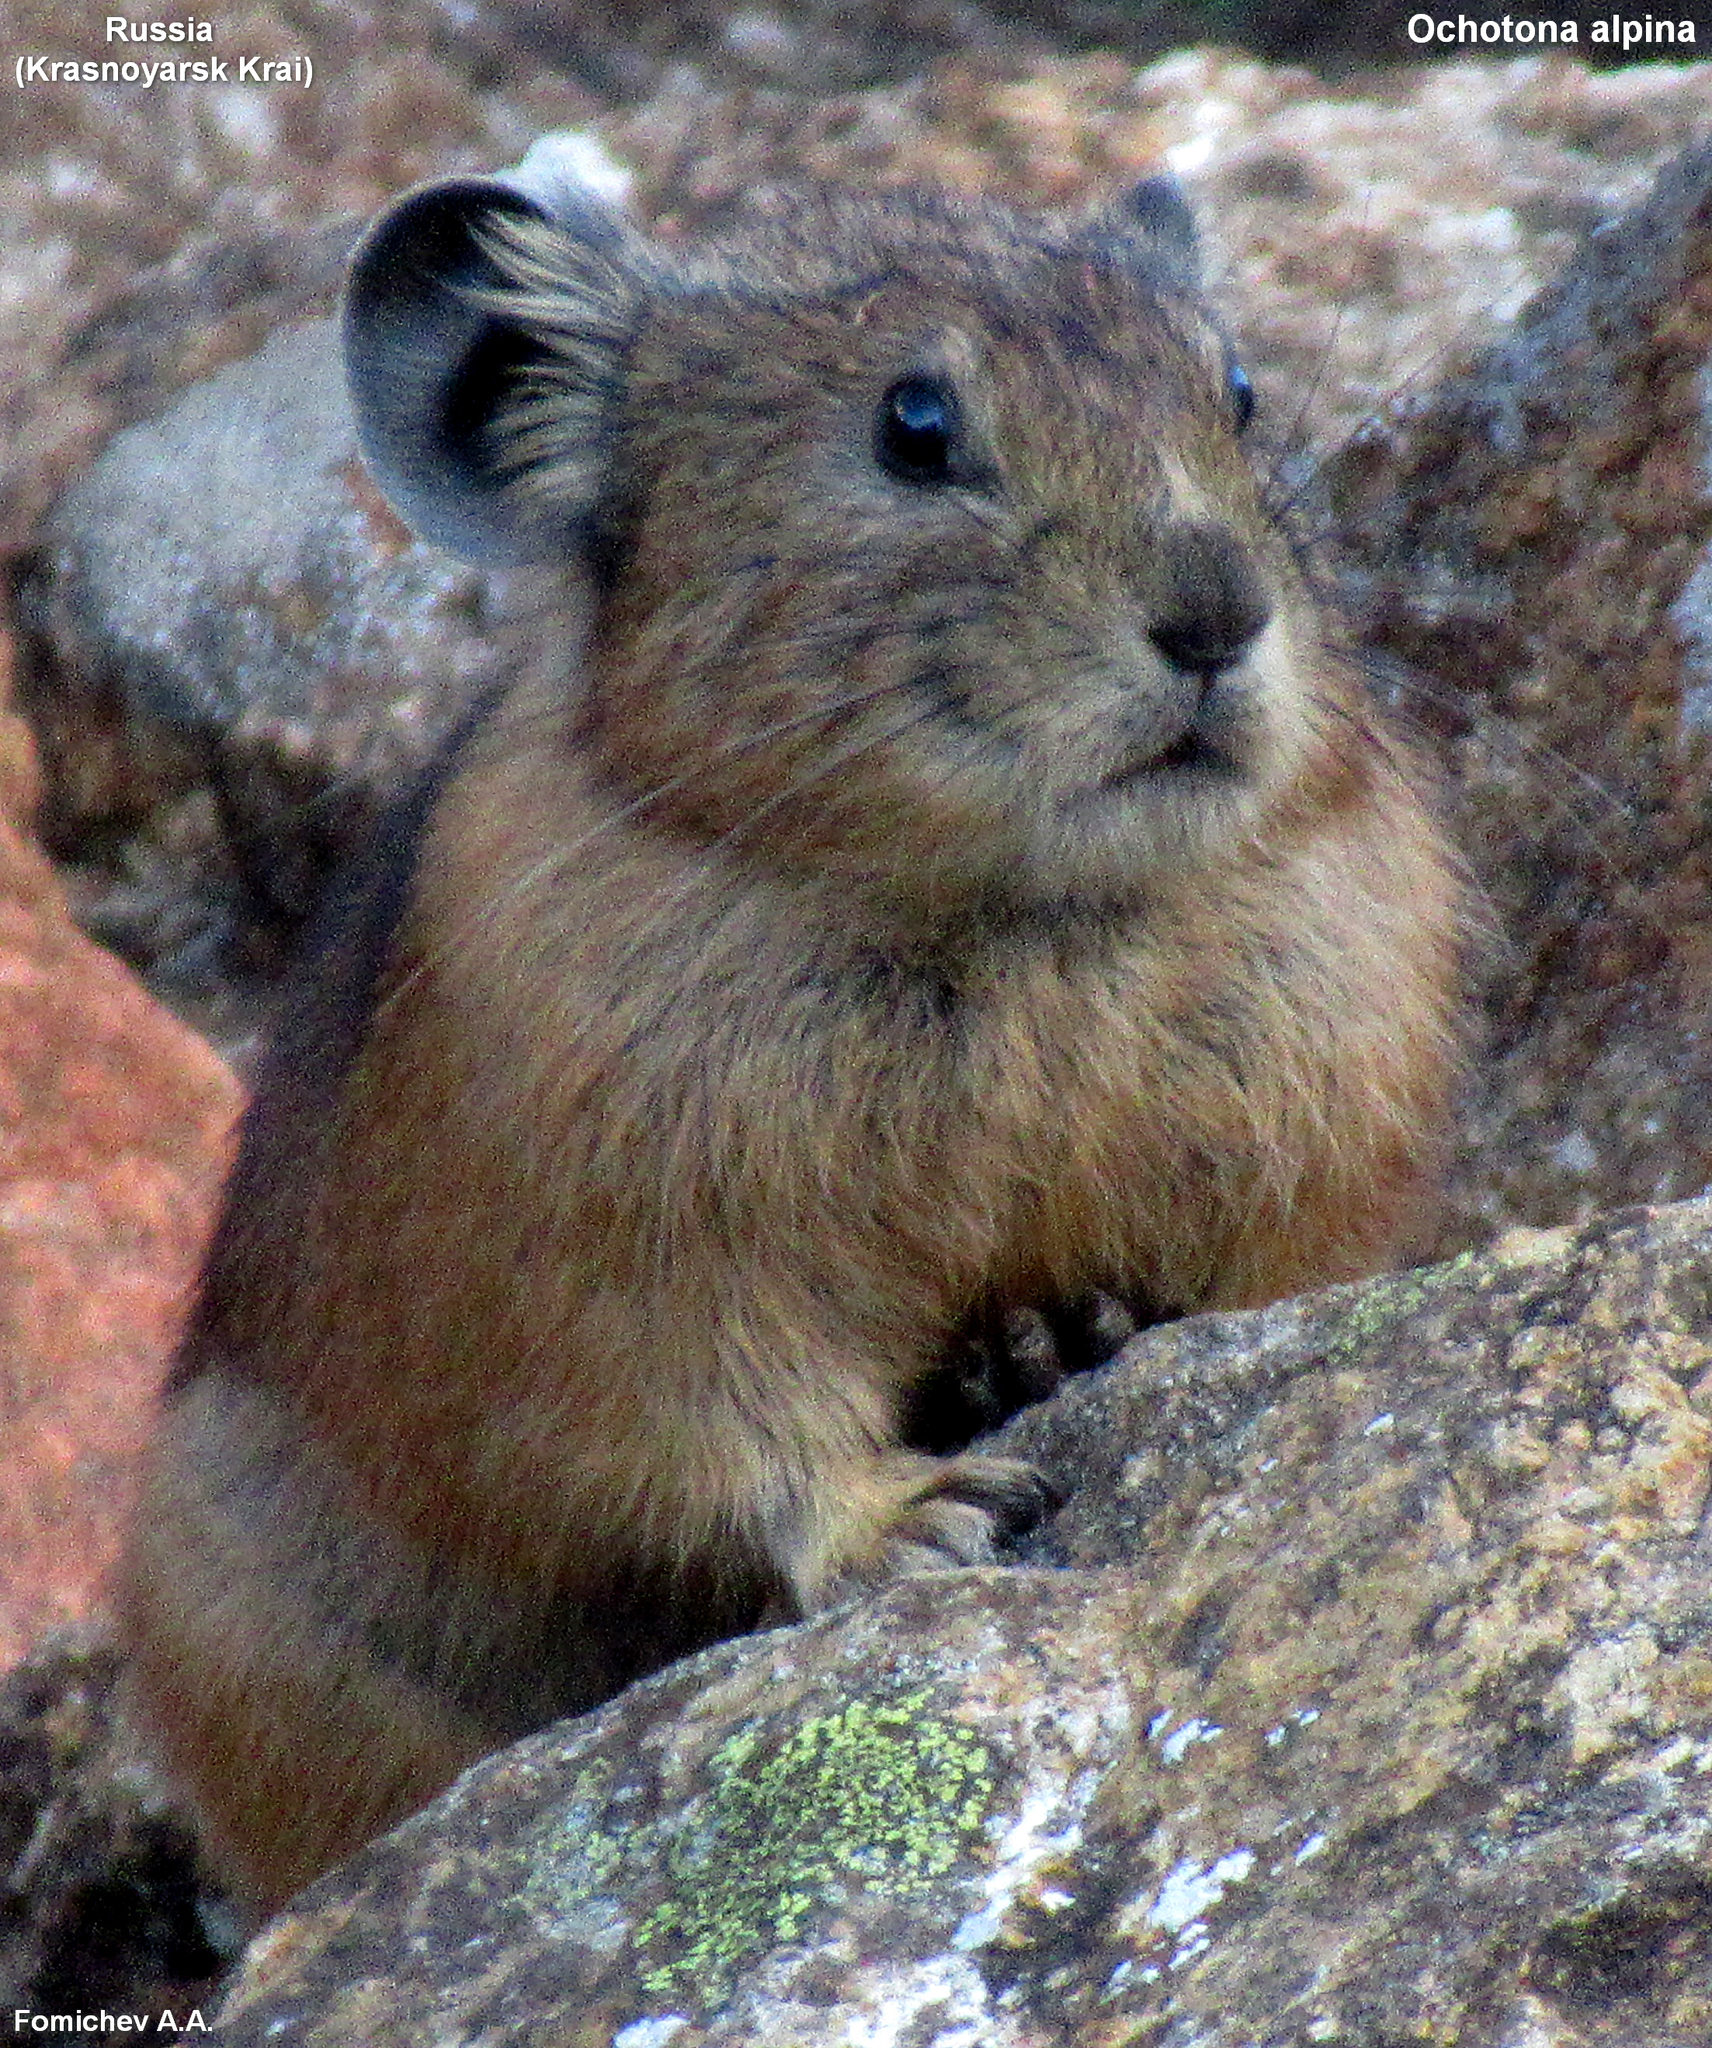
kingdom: Animalia
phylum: Chordata
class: Mammalia
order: Lagomorpha
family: Ochotonidae
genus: Ochotona
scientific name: Ochotona alpina
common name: Alpine pika
